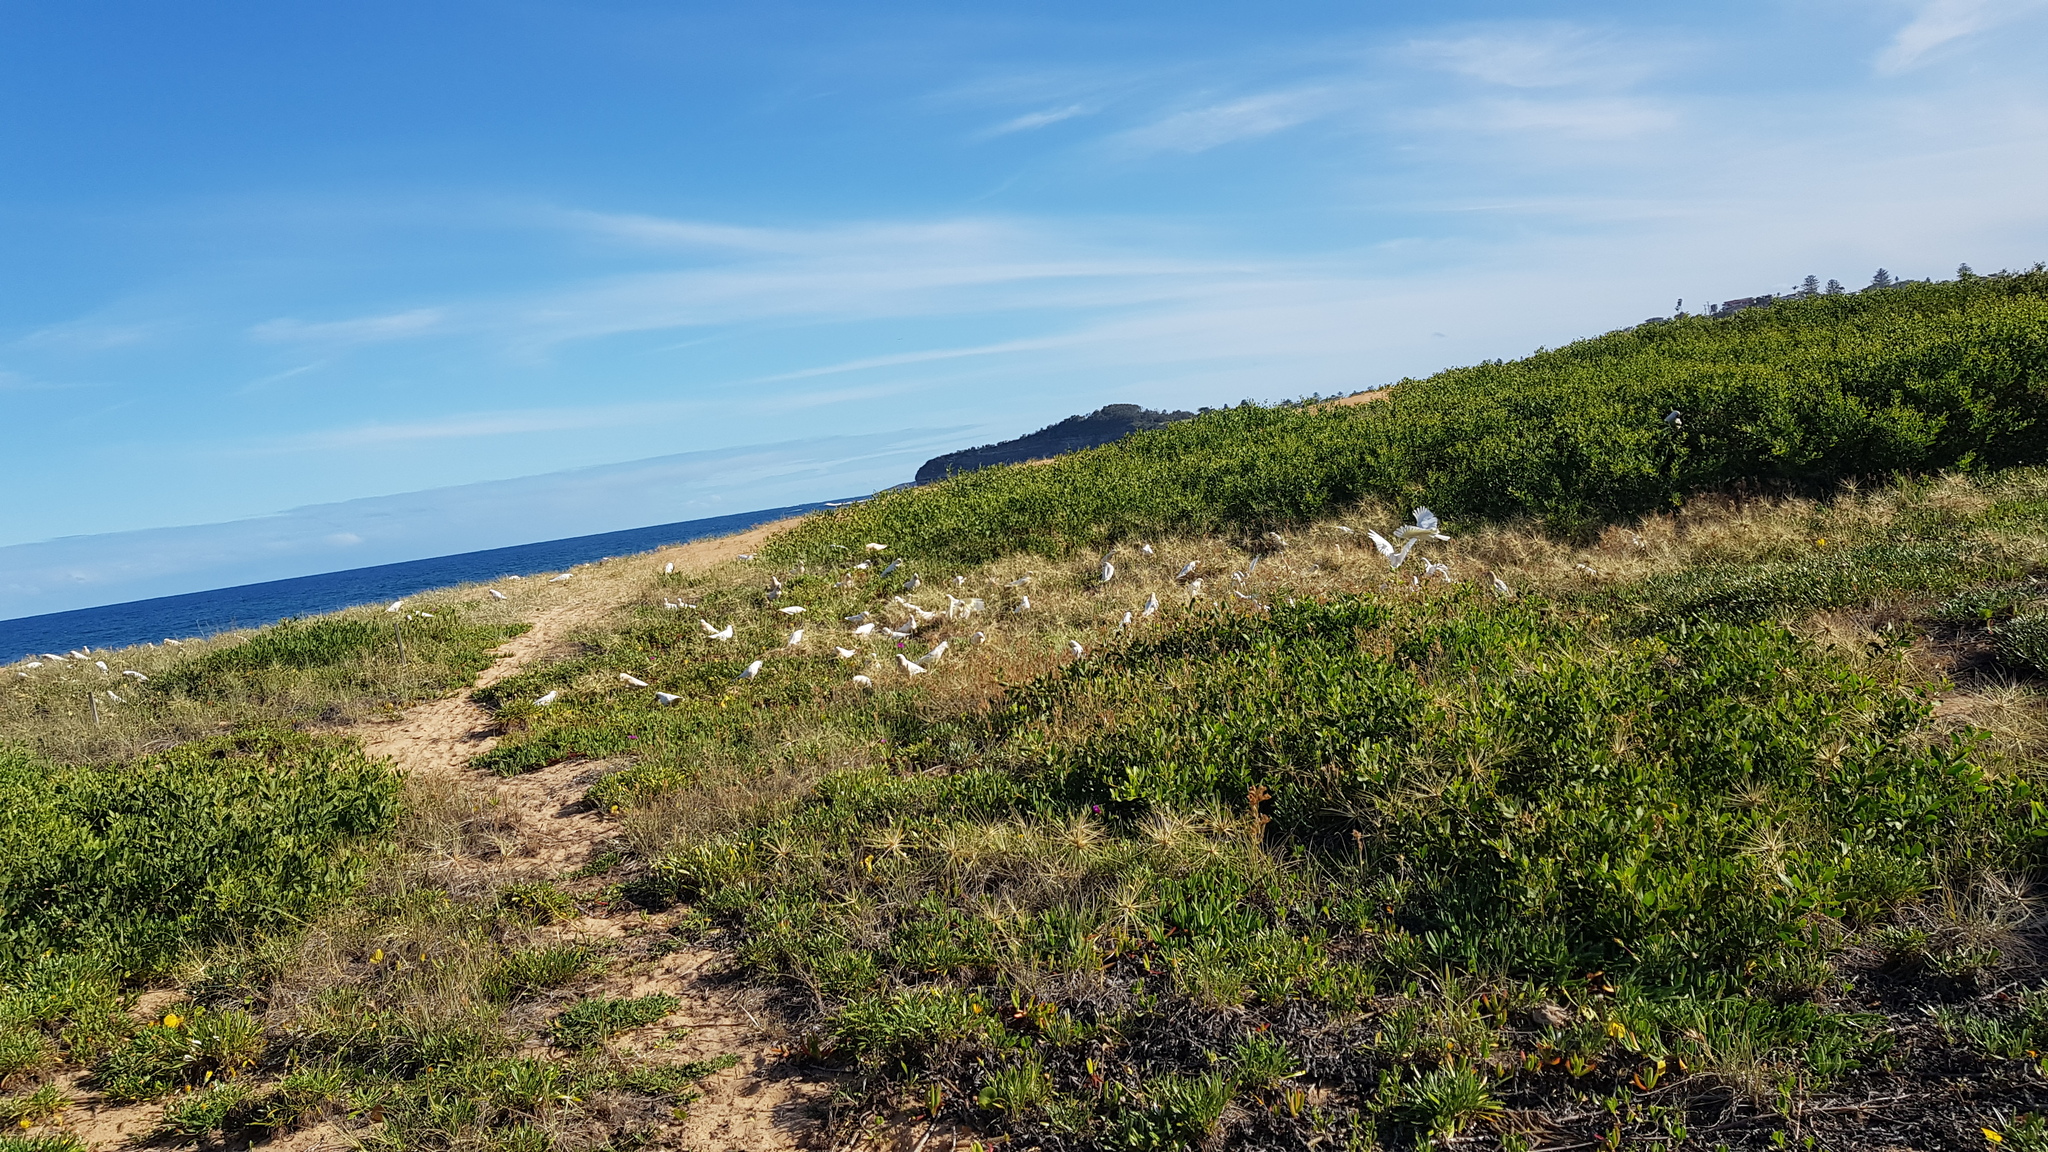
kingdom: Animalia
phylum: Chordata
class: Aves
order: Psittaciformes
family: Psittacidae
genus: Cacatua
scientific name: Cacatua sanguinea
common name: Little corella
